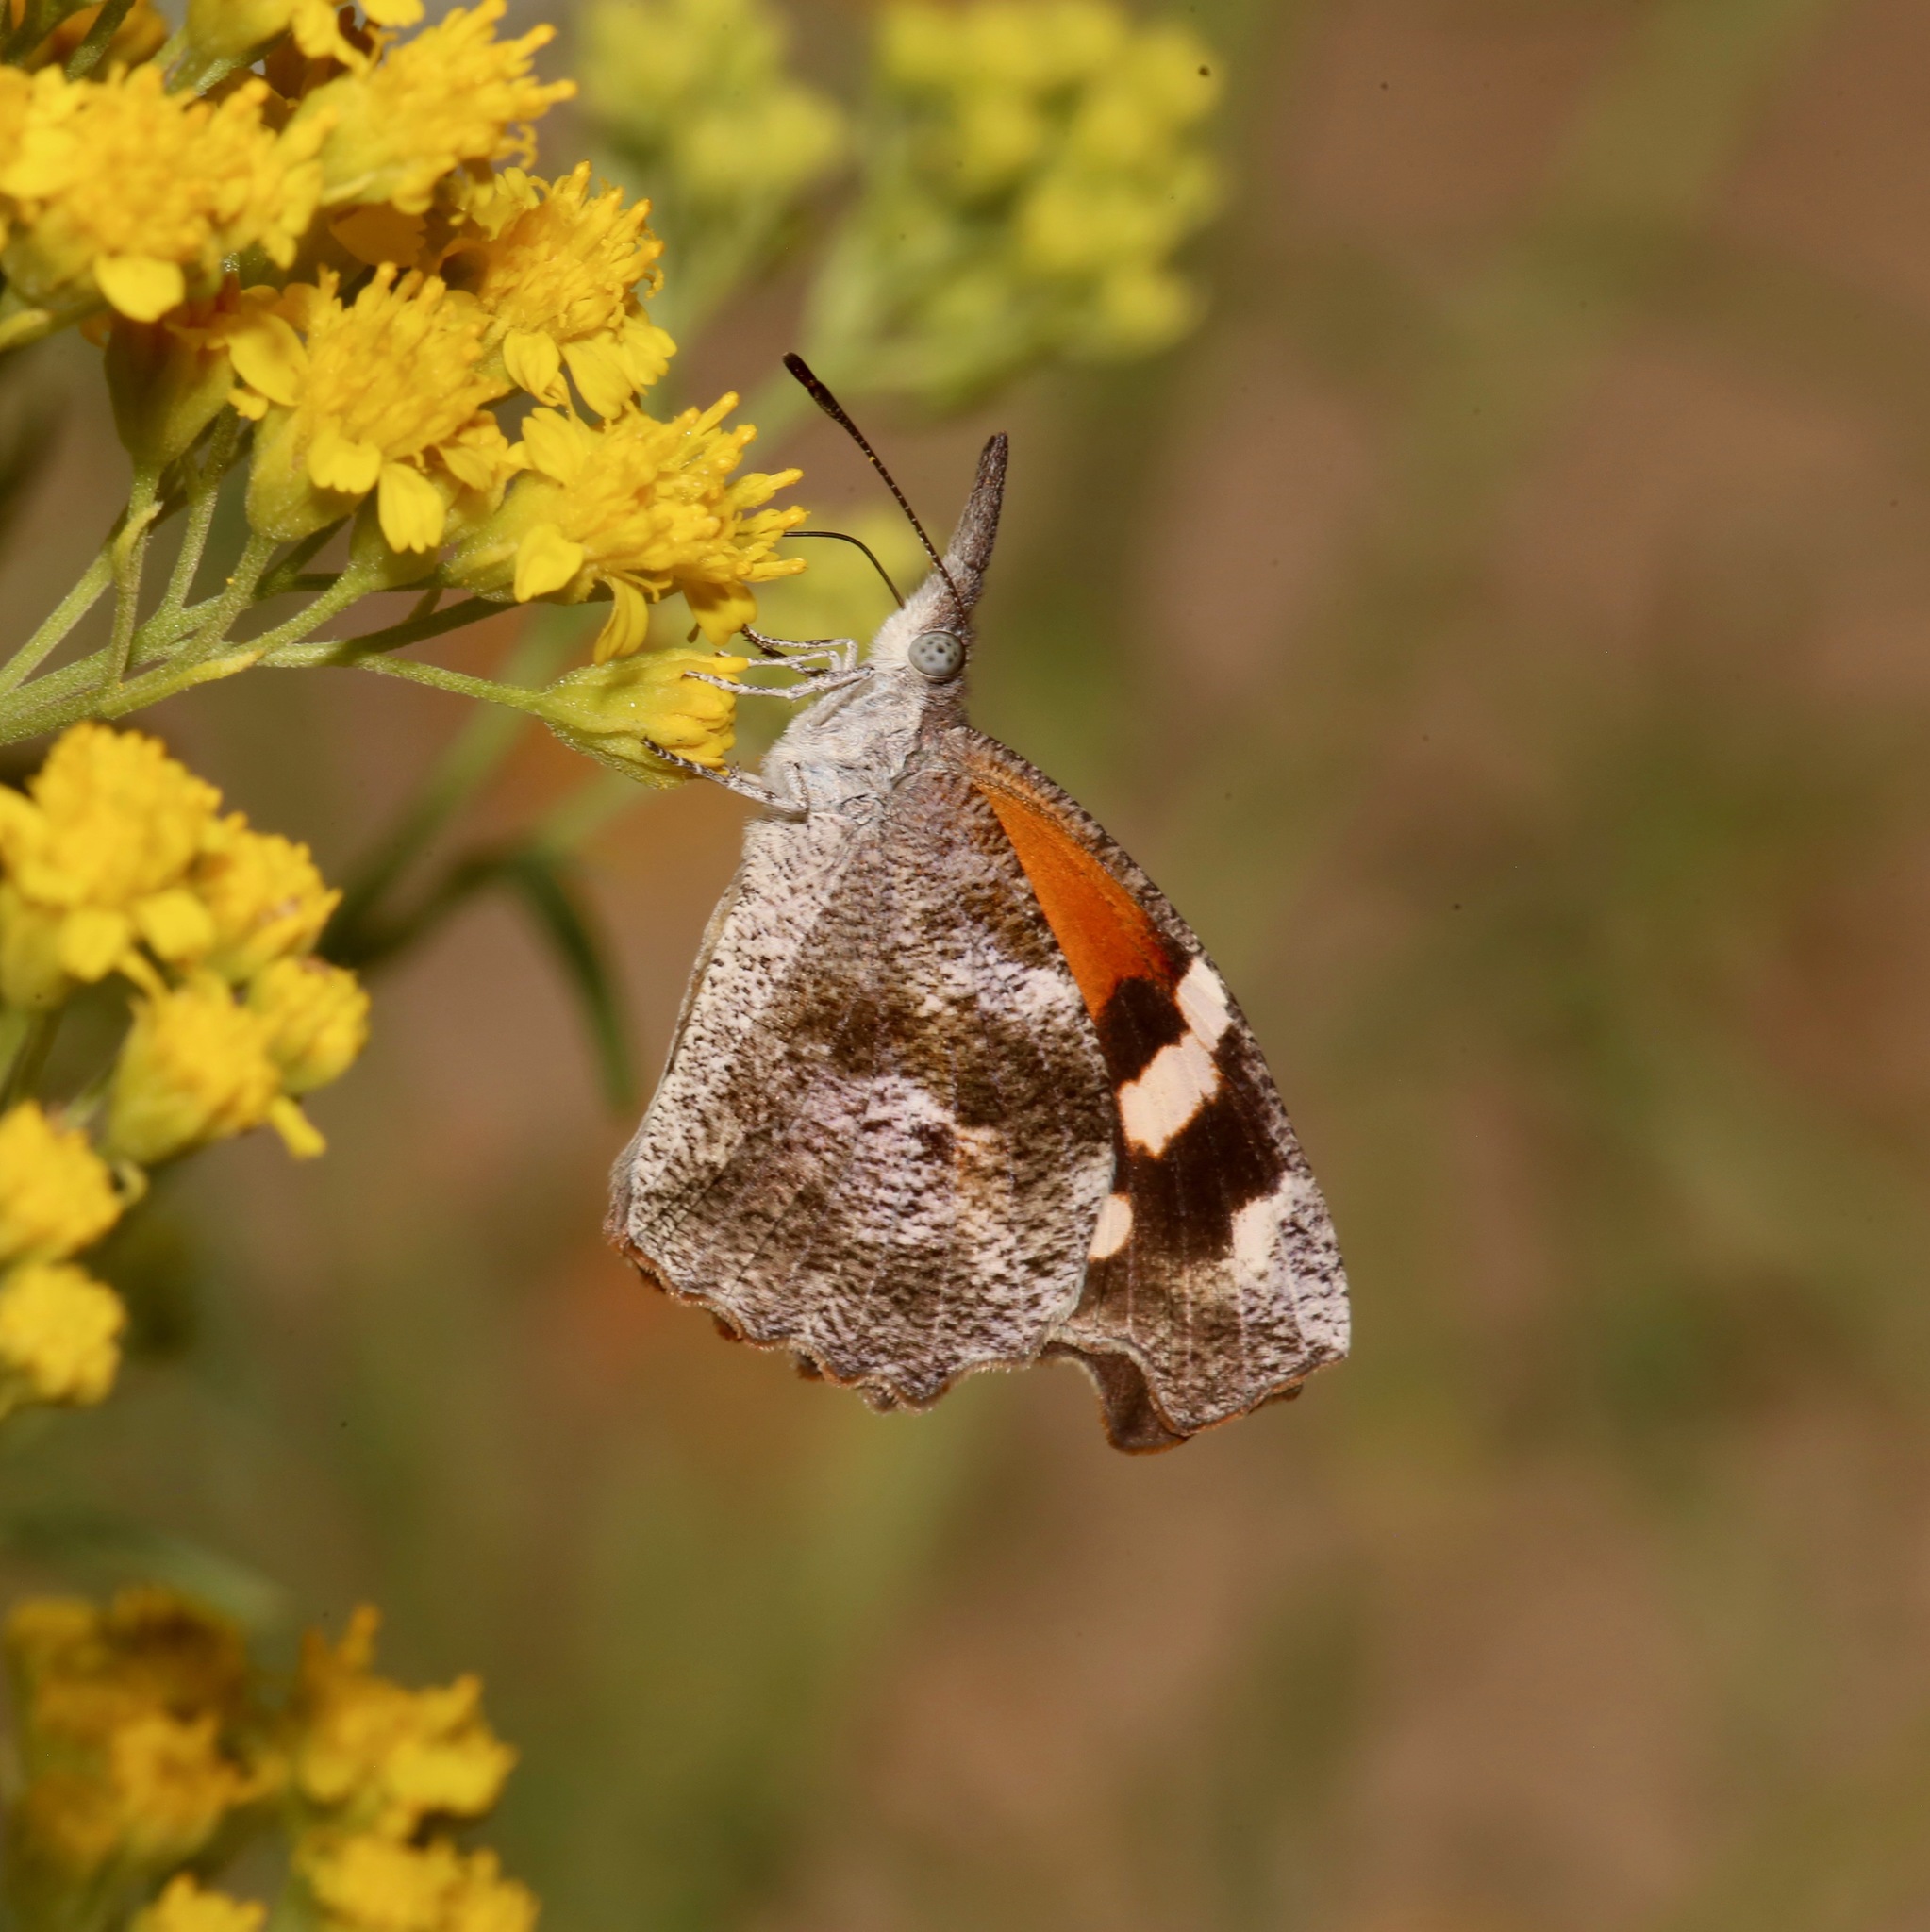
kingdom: Animalia
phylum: Arthropoda
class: Insecta
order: Lepidoptera
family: Nymphalidae
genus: Libytheana
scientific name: Libytheana carinenta
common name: American snout
